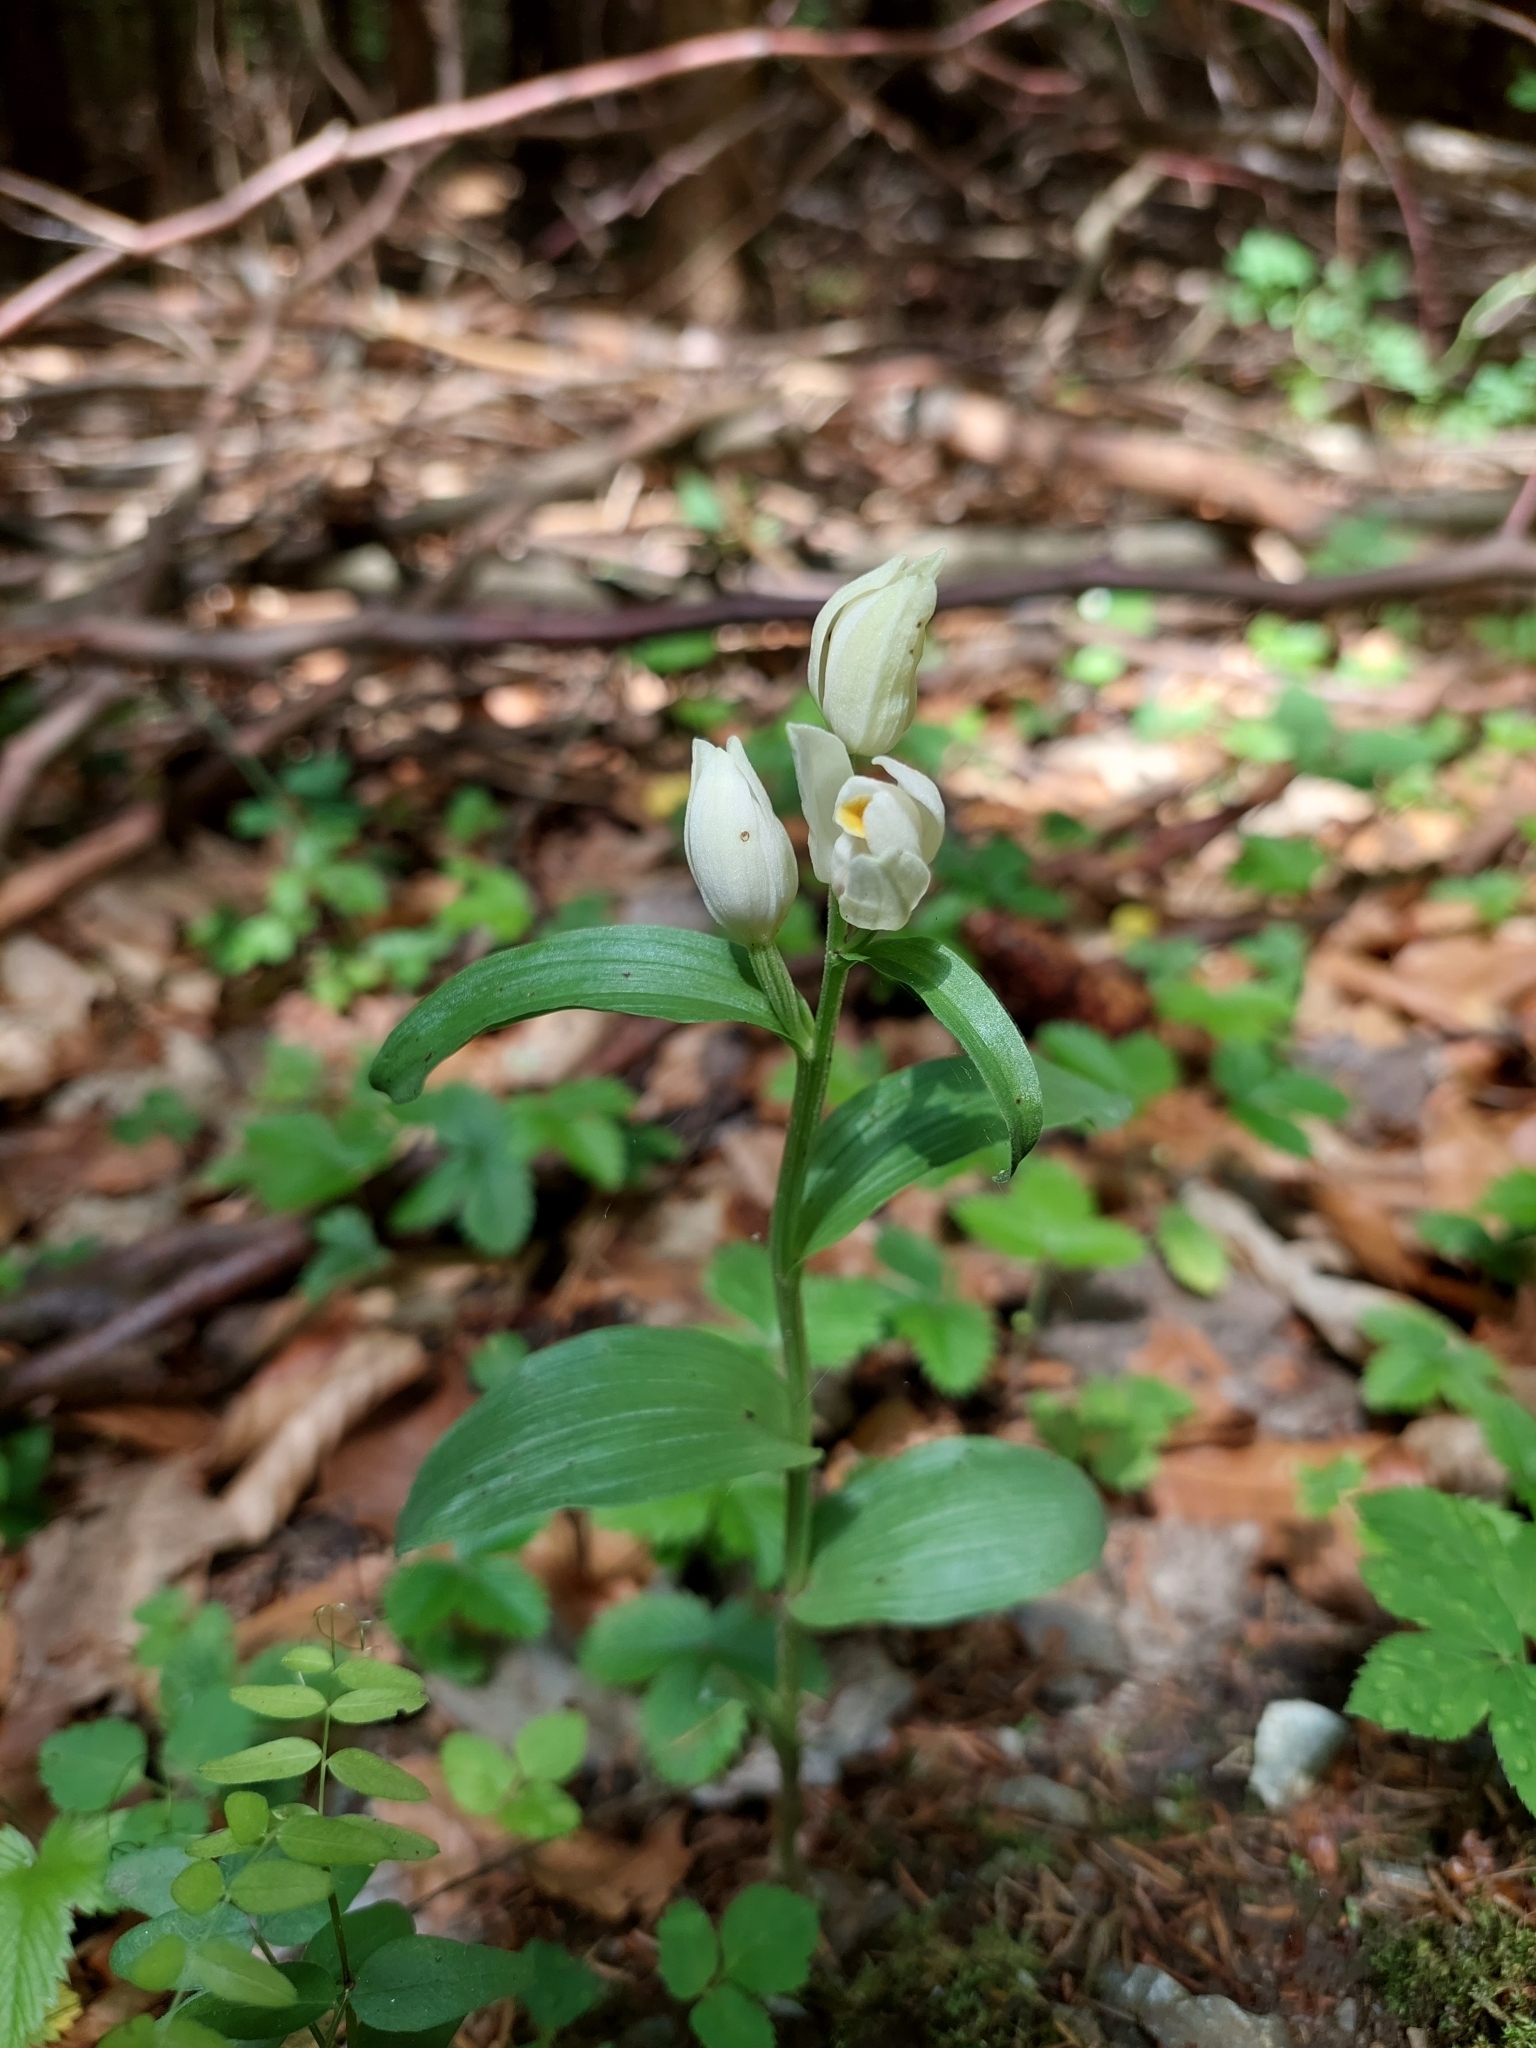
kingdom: Plantae
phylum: Tracheophyta
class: Liliopsida
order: Asparagales
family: Orchidaceae
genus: Cephalanthera
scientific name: Cephalanthera damasonium
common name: White helleborine
